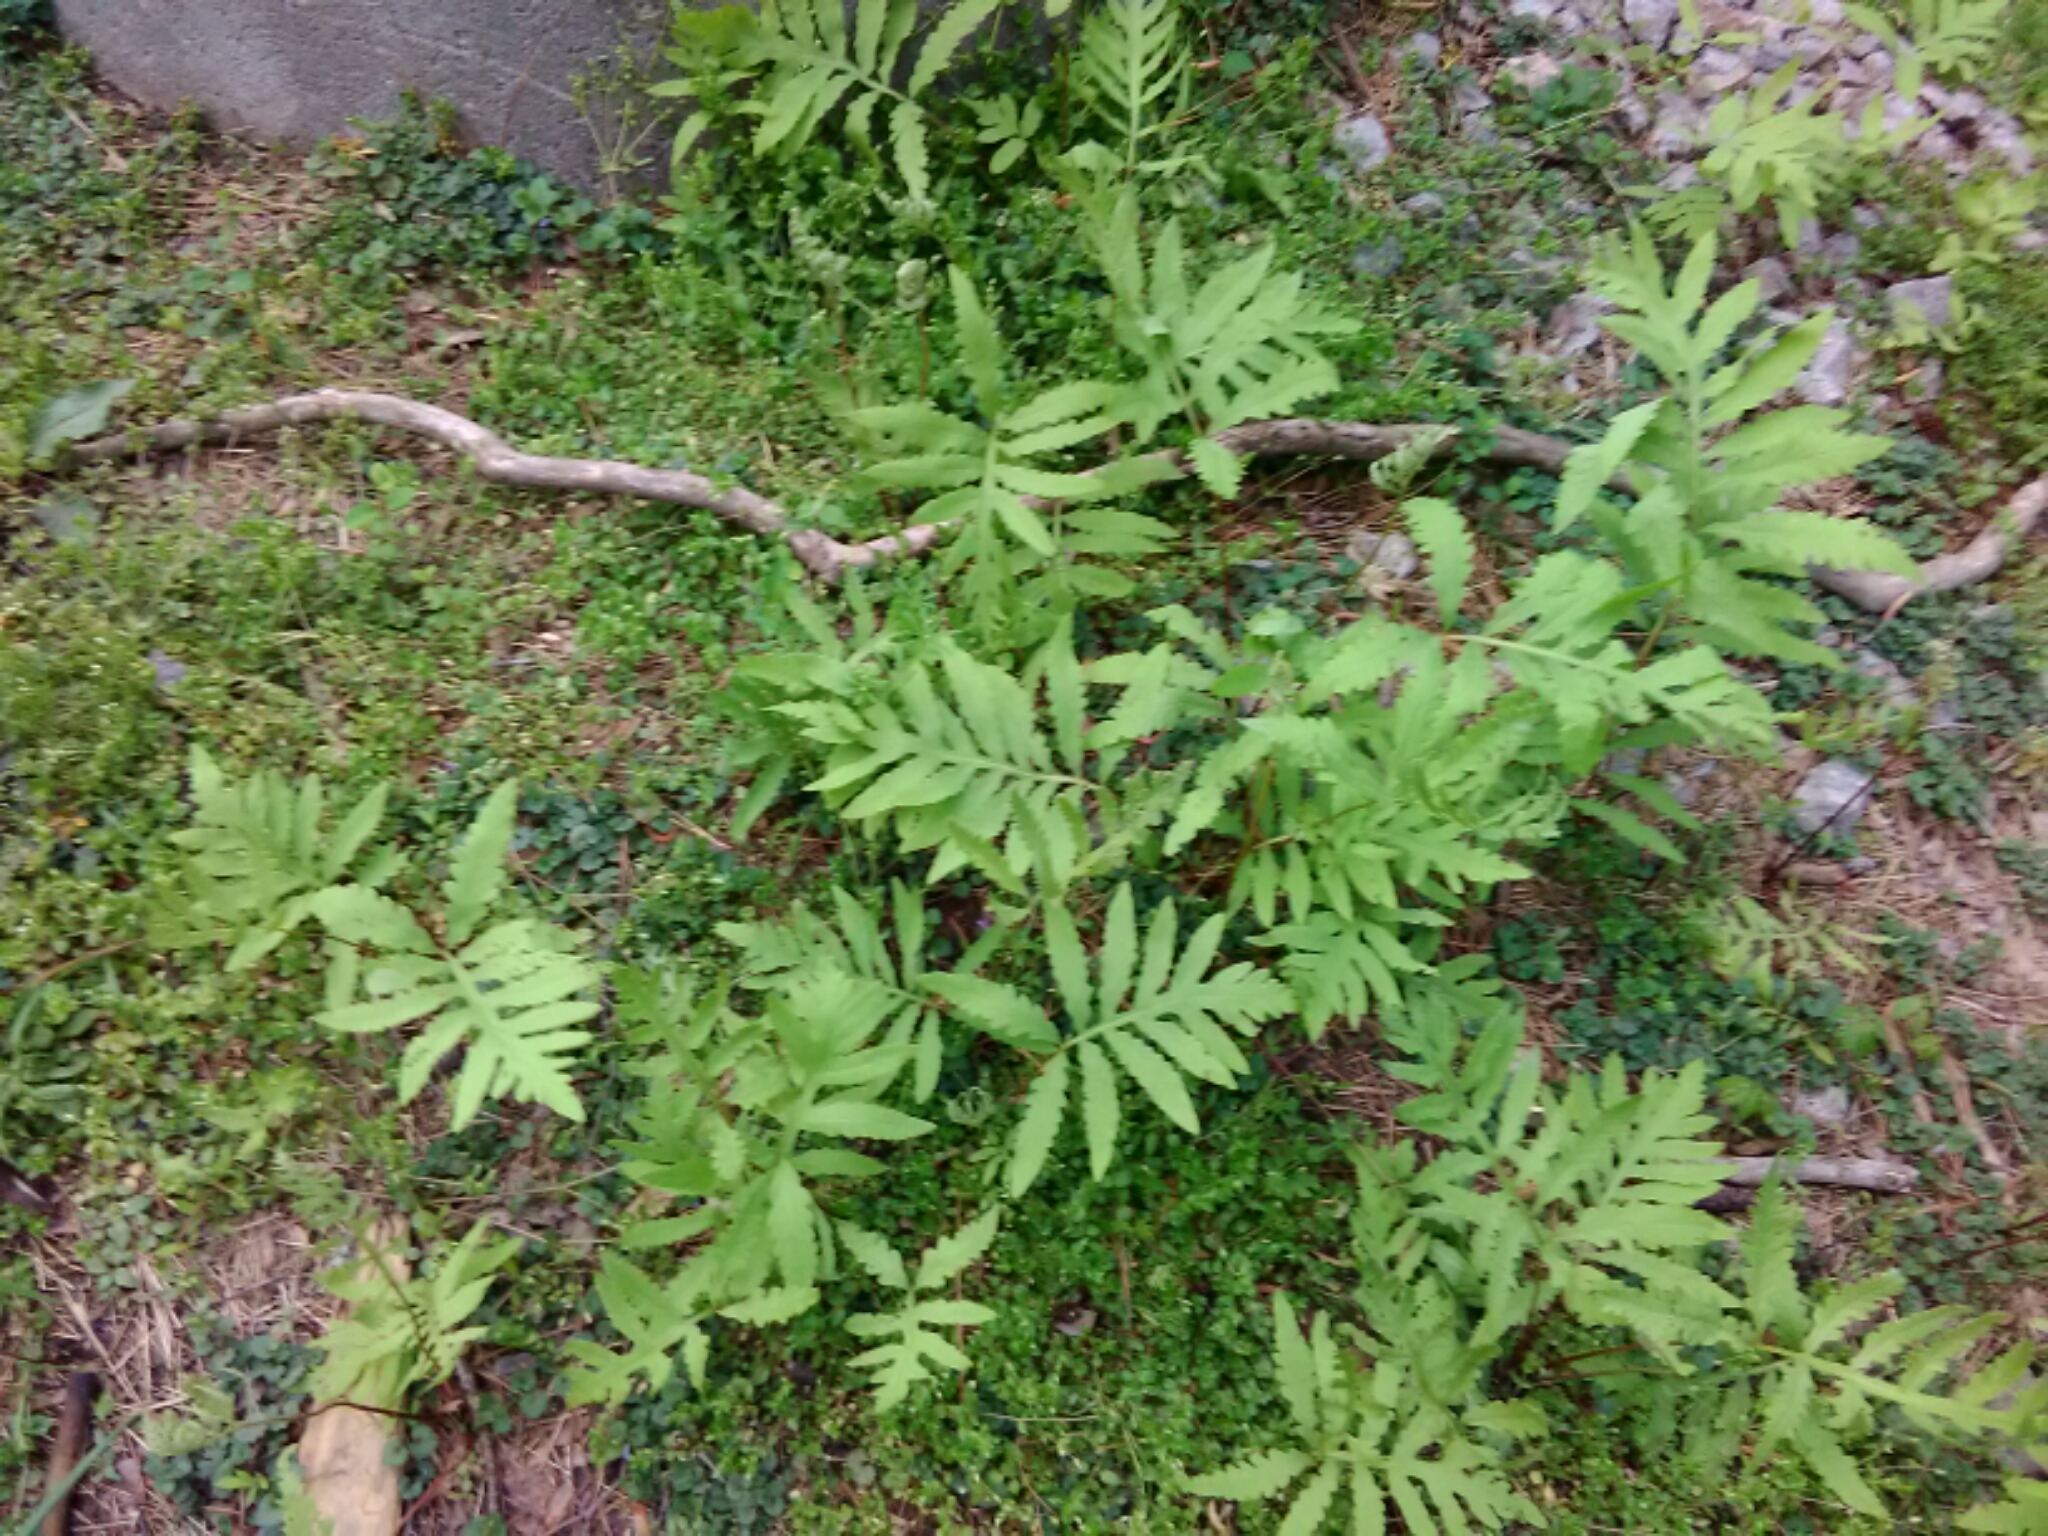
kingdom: Plantae
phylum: Tracheophyta
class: Polypodiopsida
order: Polypodiales
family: Onocleaceae
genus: Onoclea
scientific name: Onoclea sensibilis
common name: Sensitive fern
